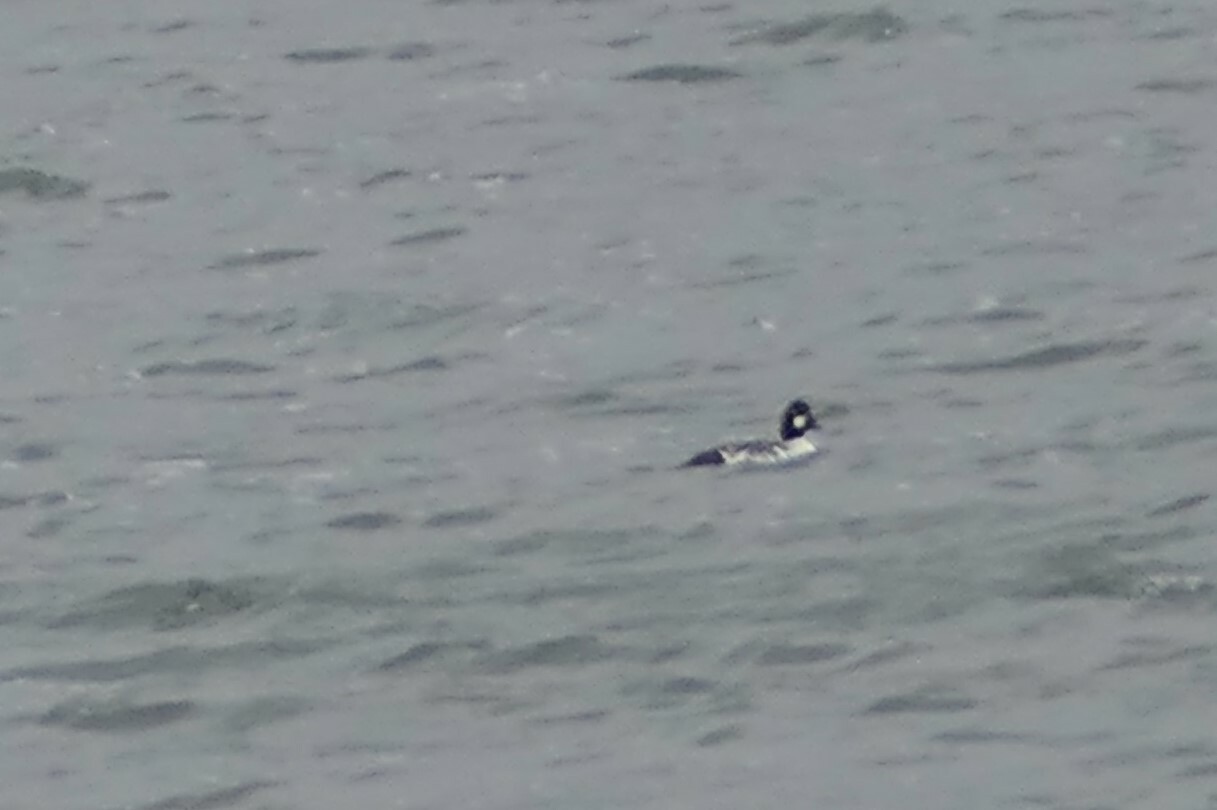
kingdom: Animalia
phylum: Chordata
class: Aves
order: Anseriformes
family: Anatidae
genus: Bucephala
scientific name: Bucephala clangula
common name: Common goldeneye
